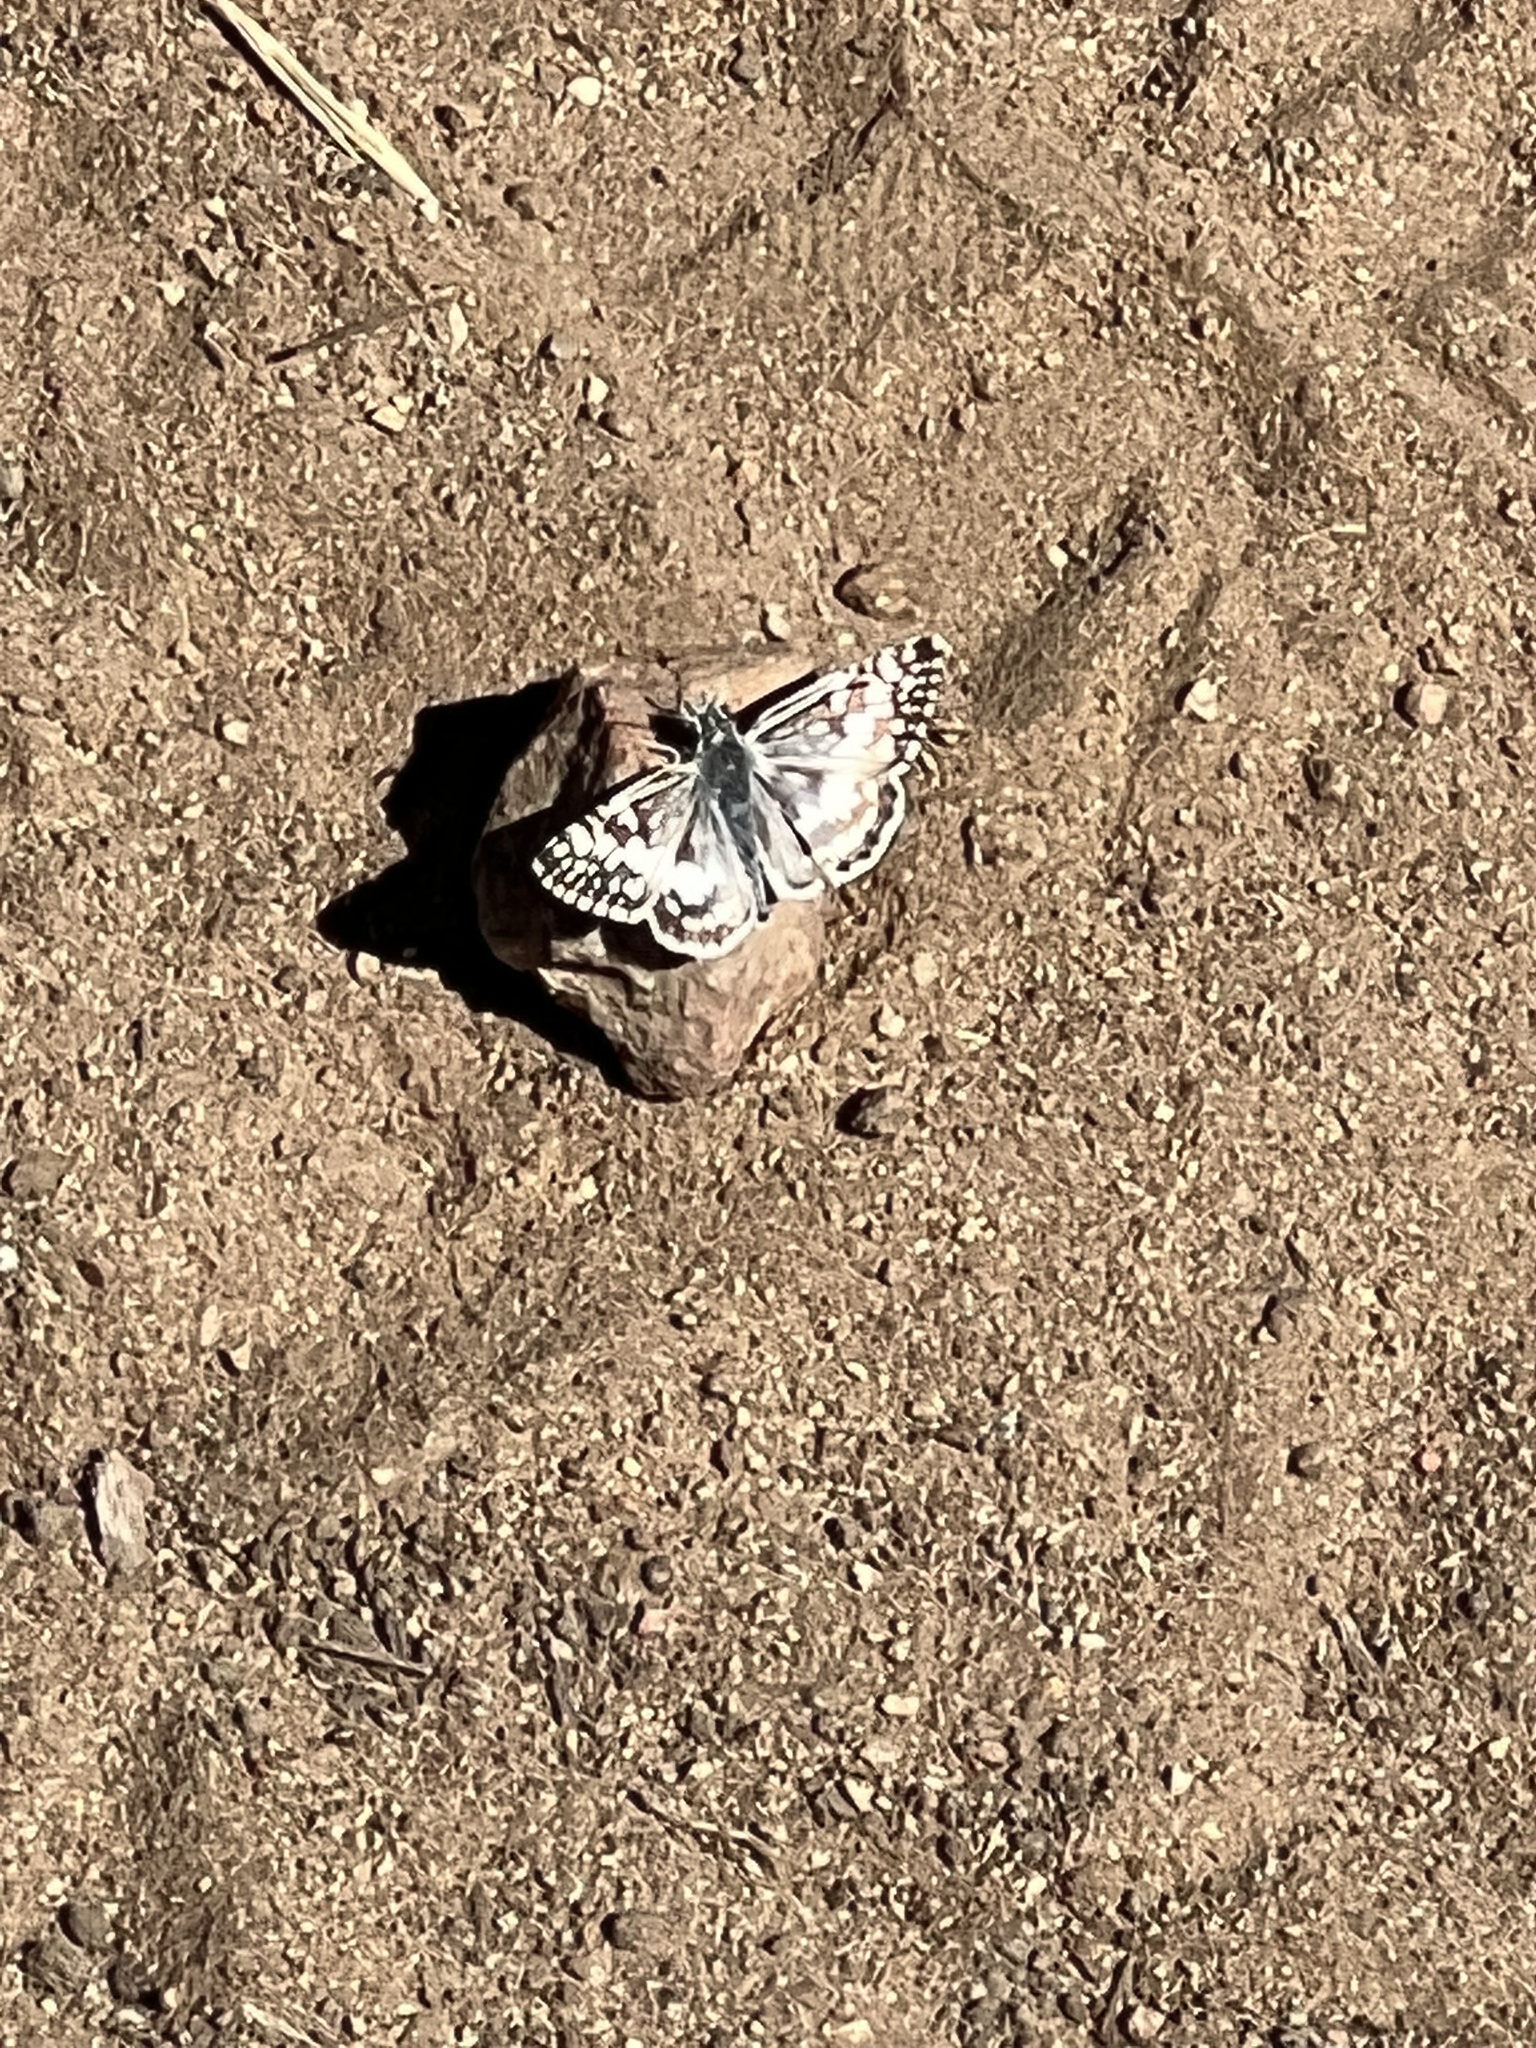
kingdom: Animalia
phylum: Arthropoda
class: Insecta
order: Lepidoptera
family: Hesperiidae
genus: Burnsius
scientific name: Burnsius albezens
